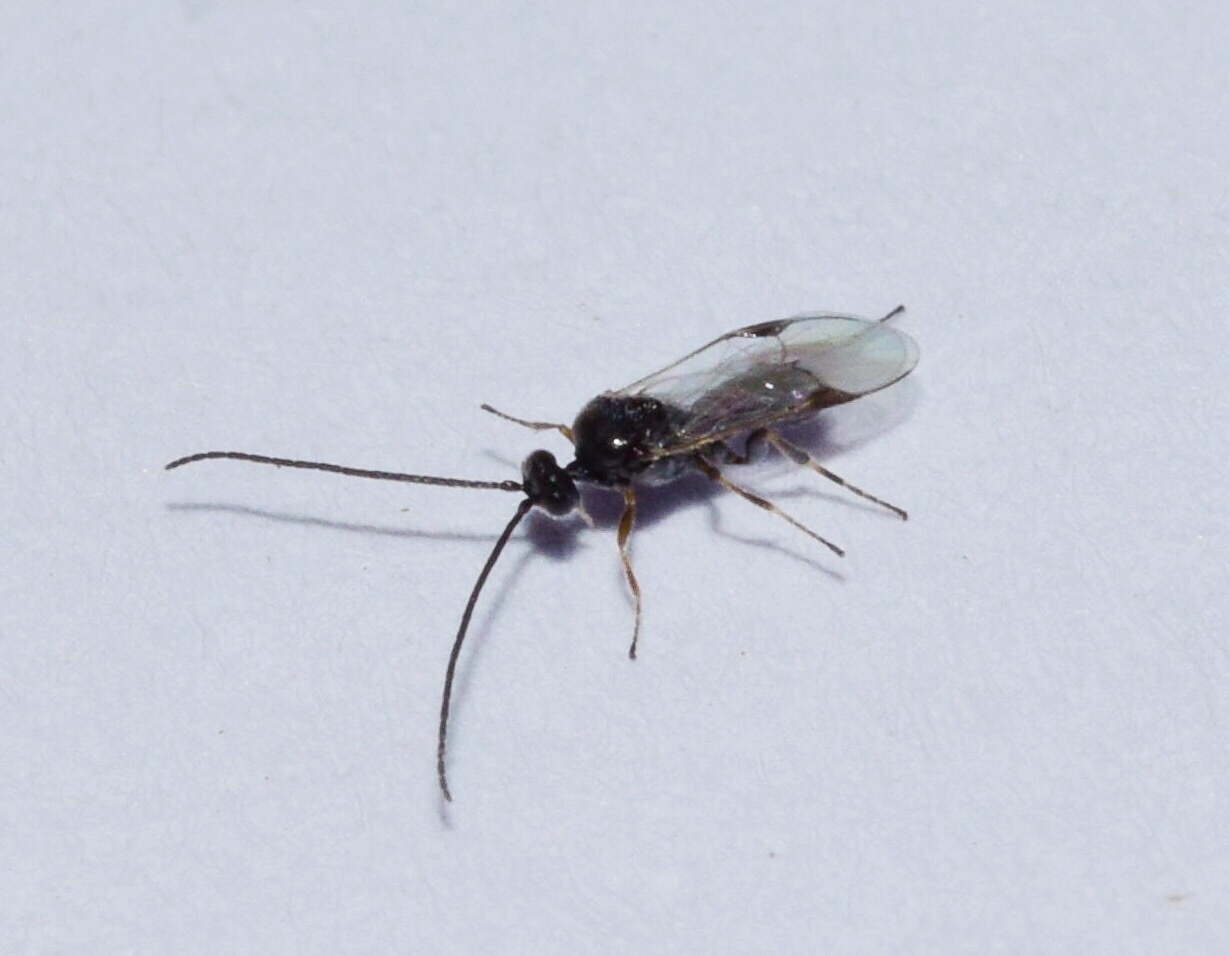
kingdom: Animalia
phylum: Arthropoda
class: Insecta
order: Hymenoptera
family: Braconidae
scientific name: Braconidae
